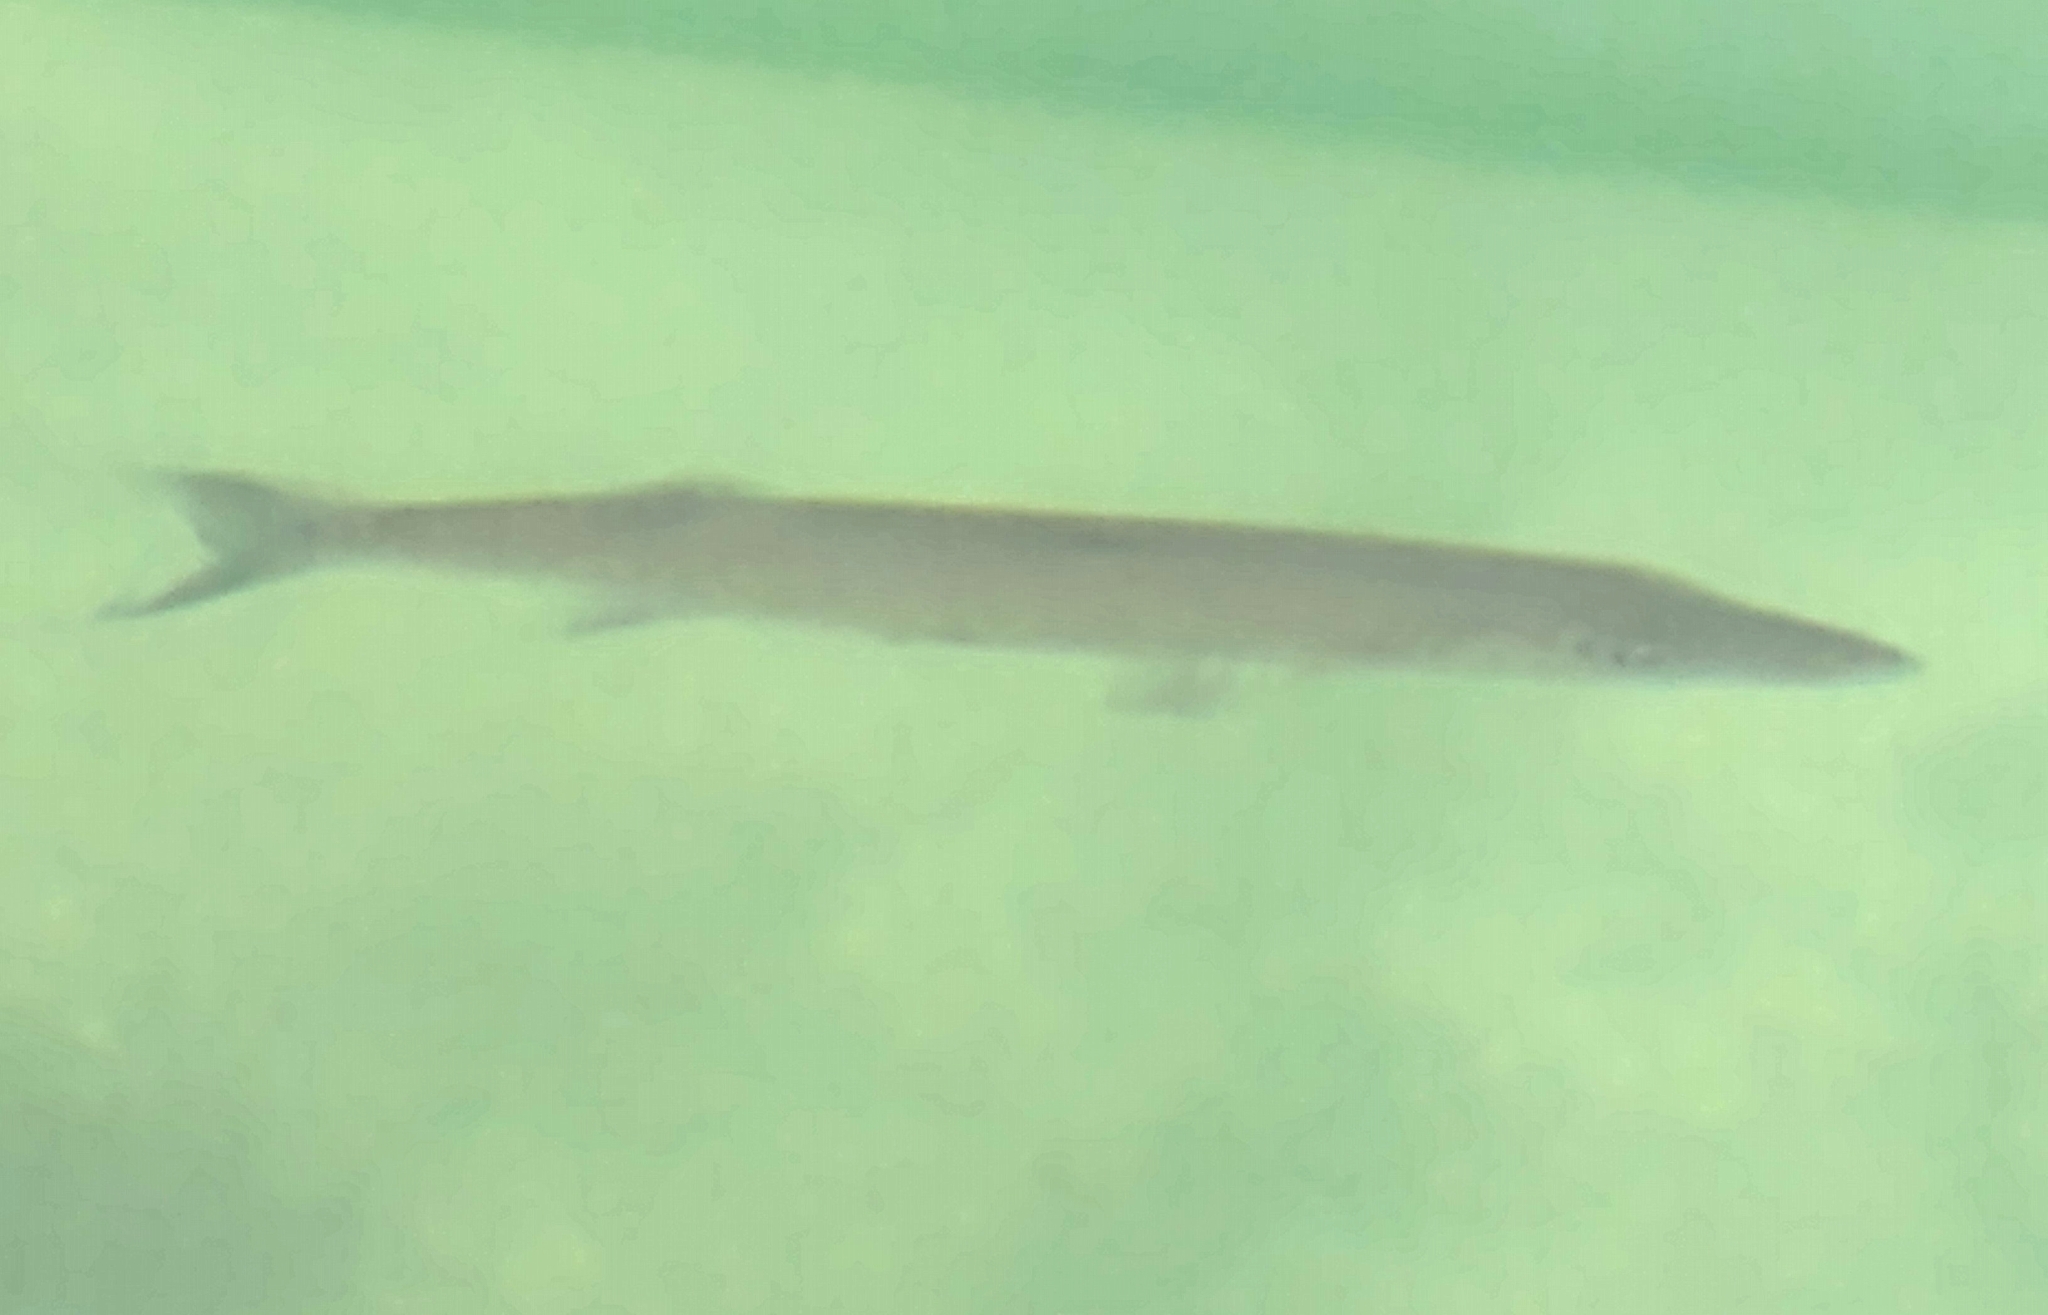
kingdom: Animalia
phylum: Chordata
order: Perciformes
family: Sphyraenidae
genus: Sphyraena
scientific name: Sphyraena barracuda
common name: Great barracuda
